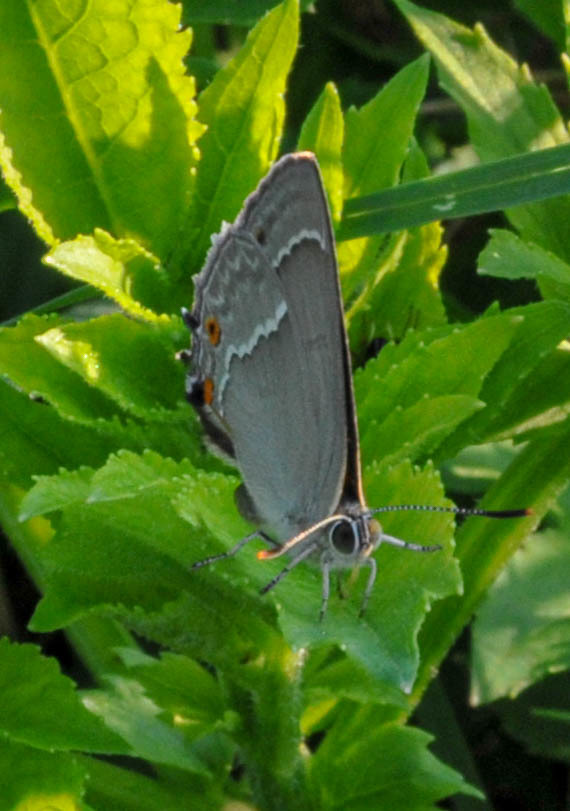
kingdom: Animalia
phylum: Arthropoda
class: Insecta
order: Lepidoptera
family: Lycaenidae
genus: Quercusia
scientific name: Quercusia quercus
